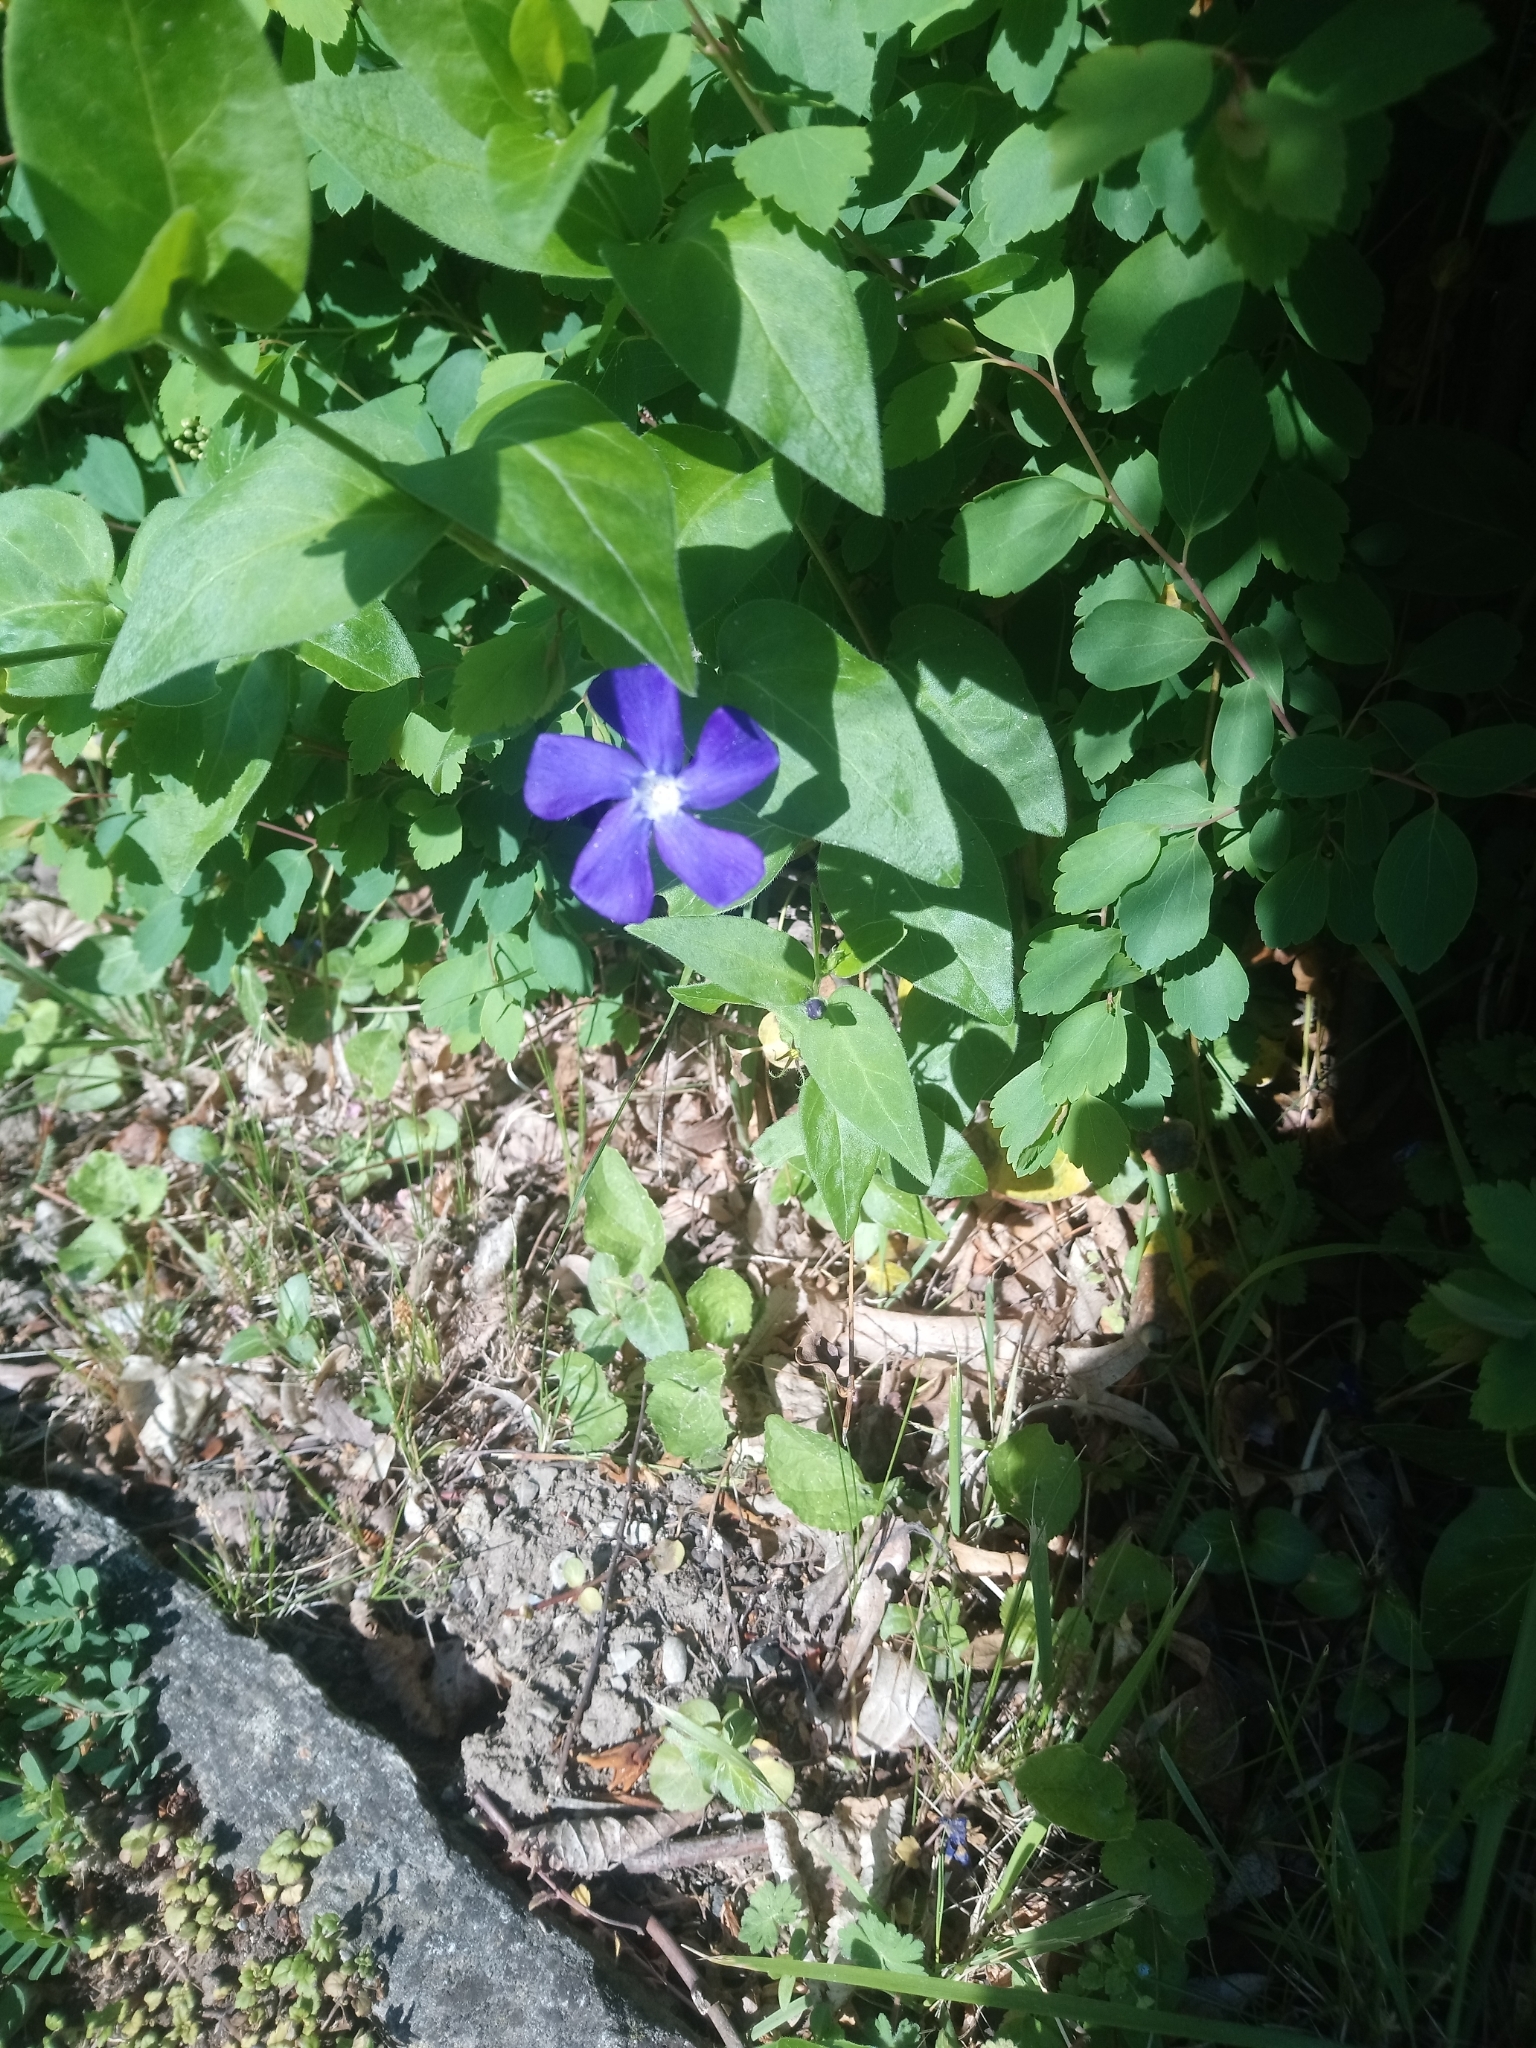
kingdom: Plantae
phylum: Tracheophyta
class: Magnoliopsida
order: Gentianales
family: Apocynaceae
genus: Vinca
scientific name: Vinca major
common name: Greater periwinkle
